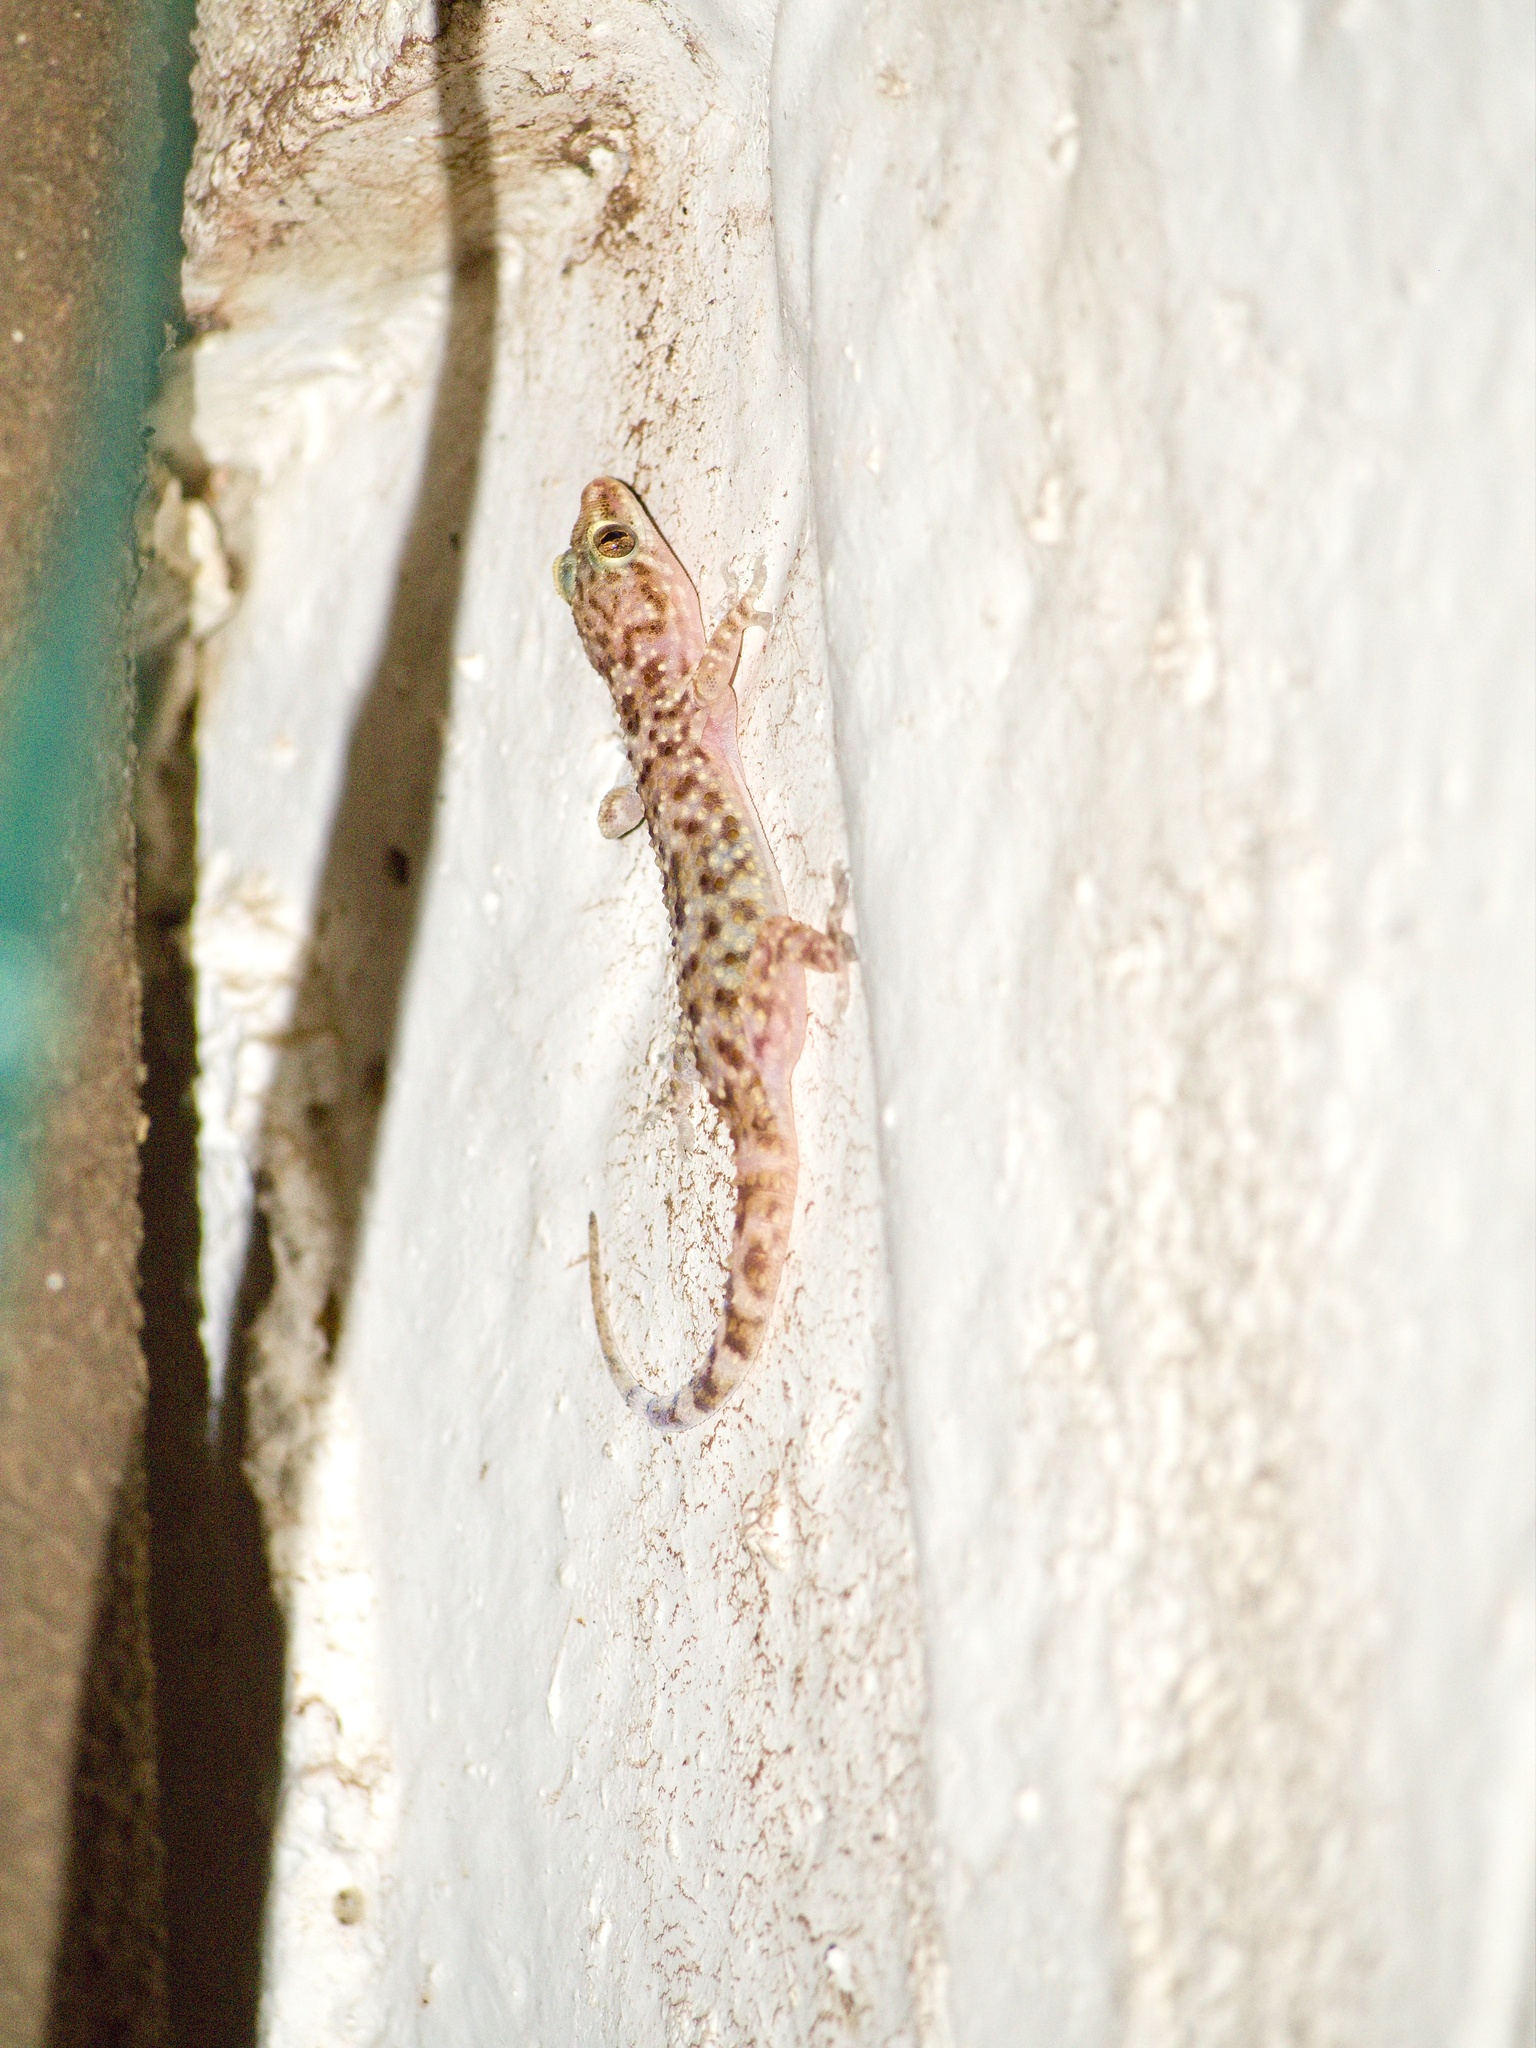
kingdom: Animalia
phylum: Chordata
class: Squamata
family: Gekkonidae
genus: Hemidactylus
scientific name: Hemidactylus turcicus
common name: Turkish gecko
